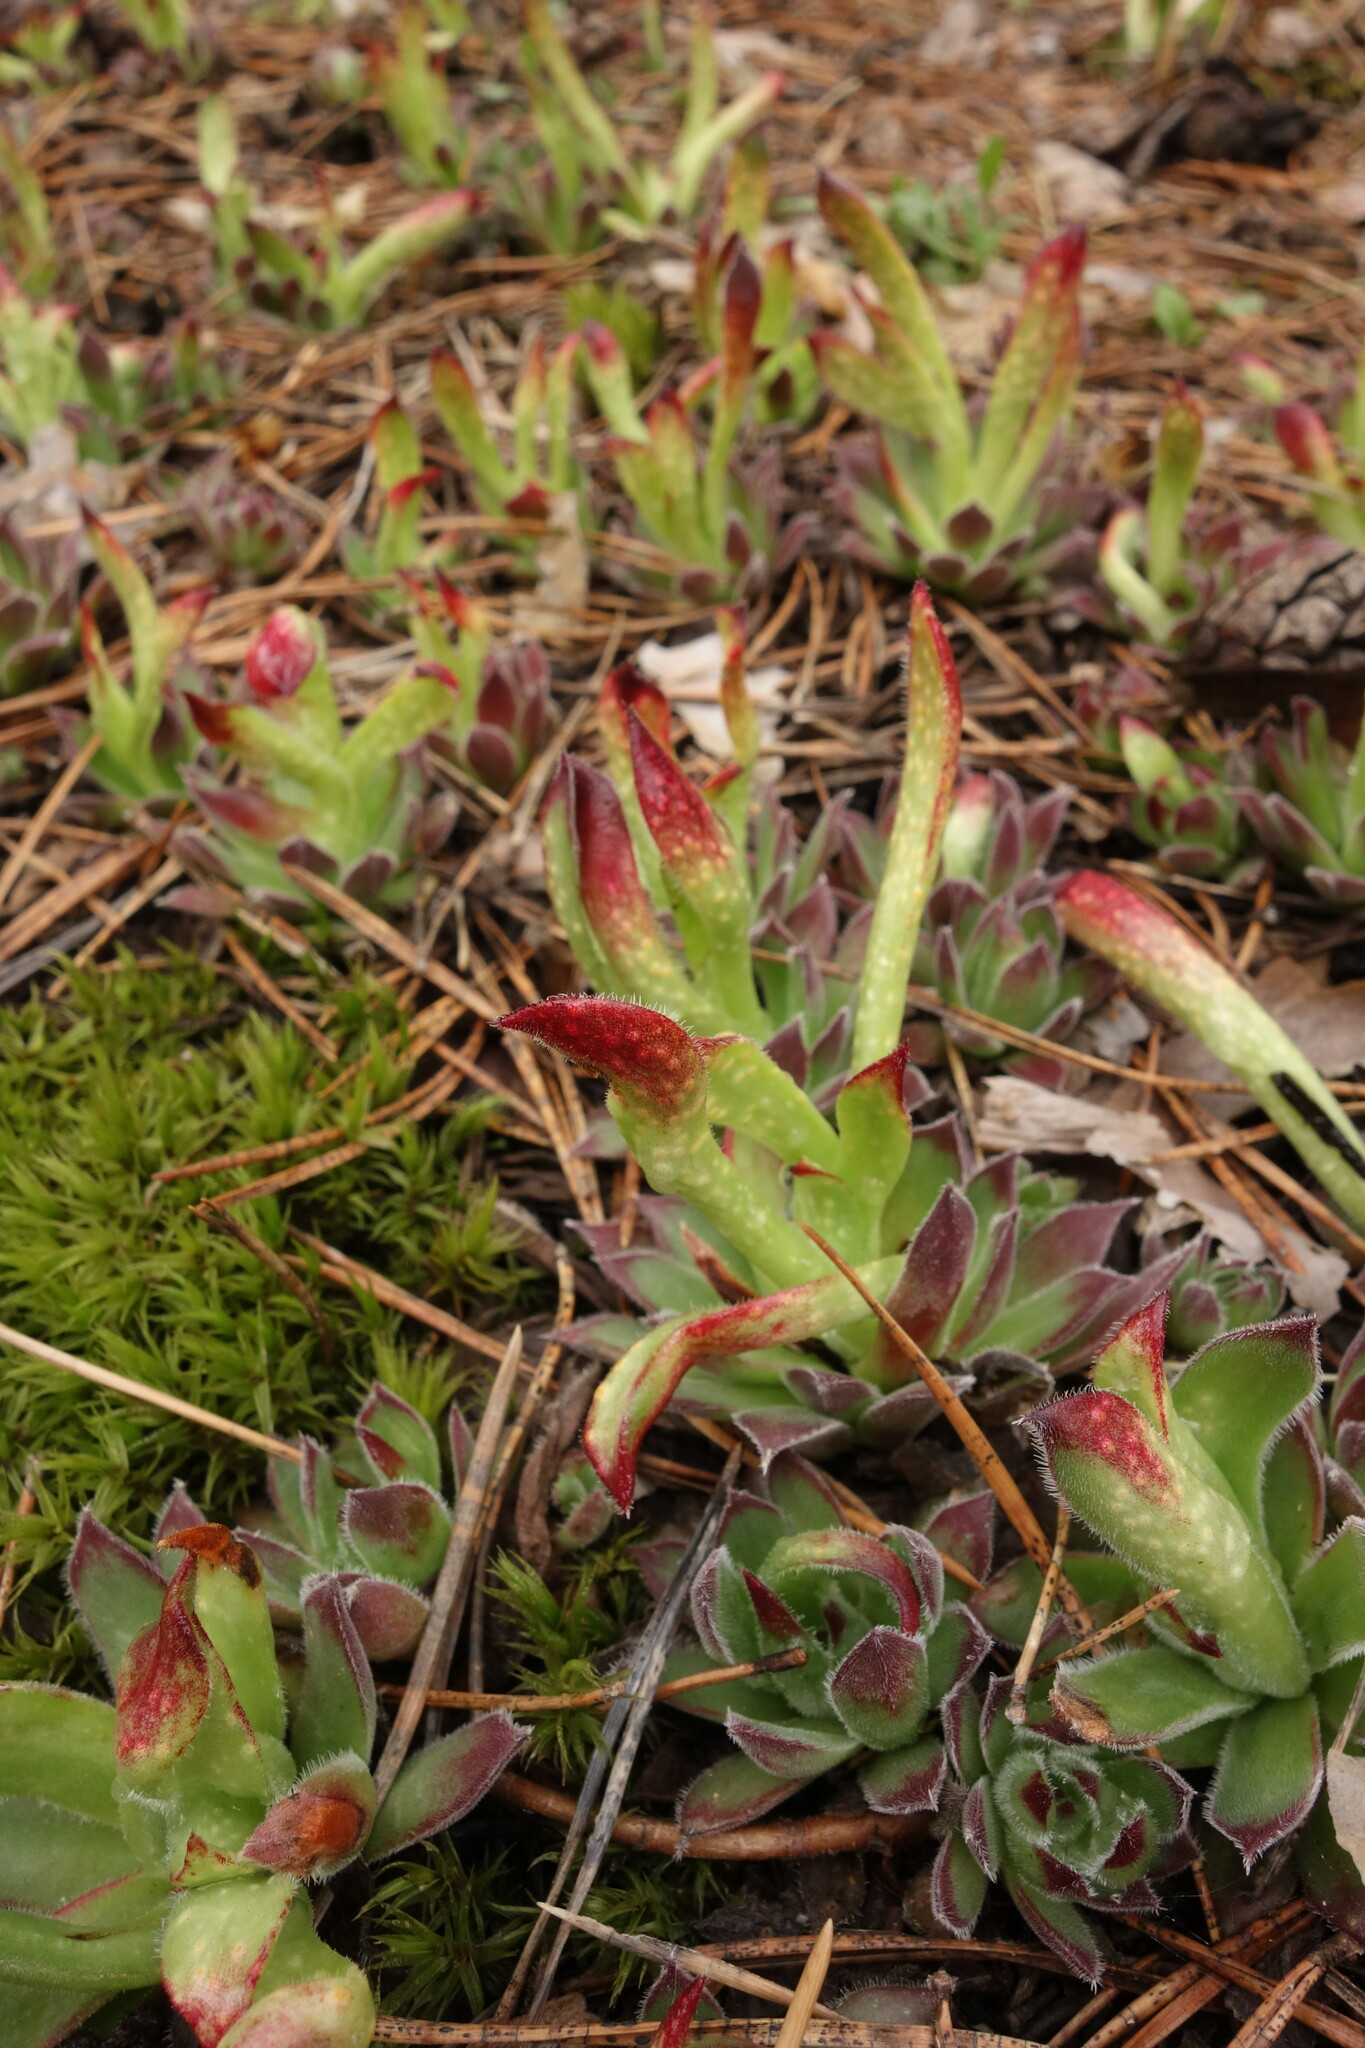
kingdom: Plantae
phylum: Tracheophyta
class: Magnoliopsida
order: Saxifragales
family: Crassulaceae
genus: Sempervivum
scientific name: Sempervivum ruthenicum
